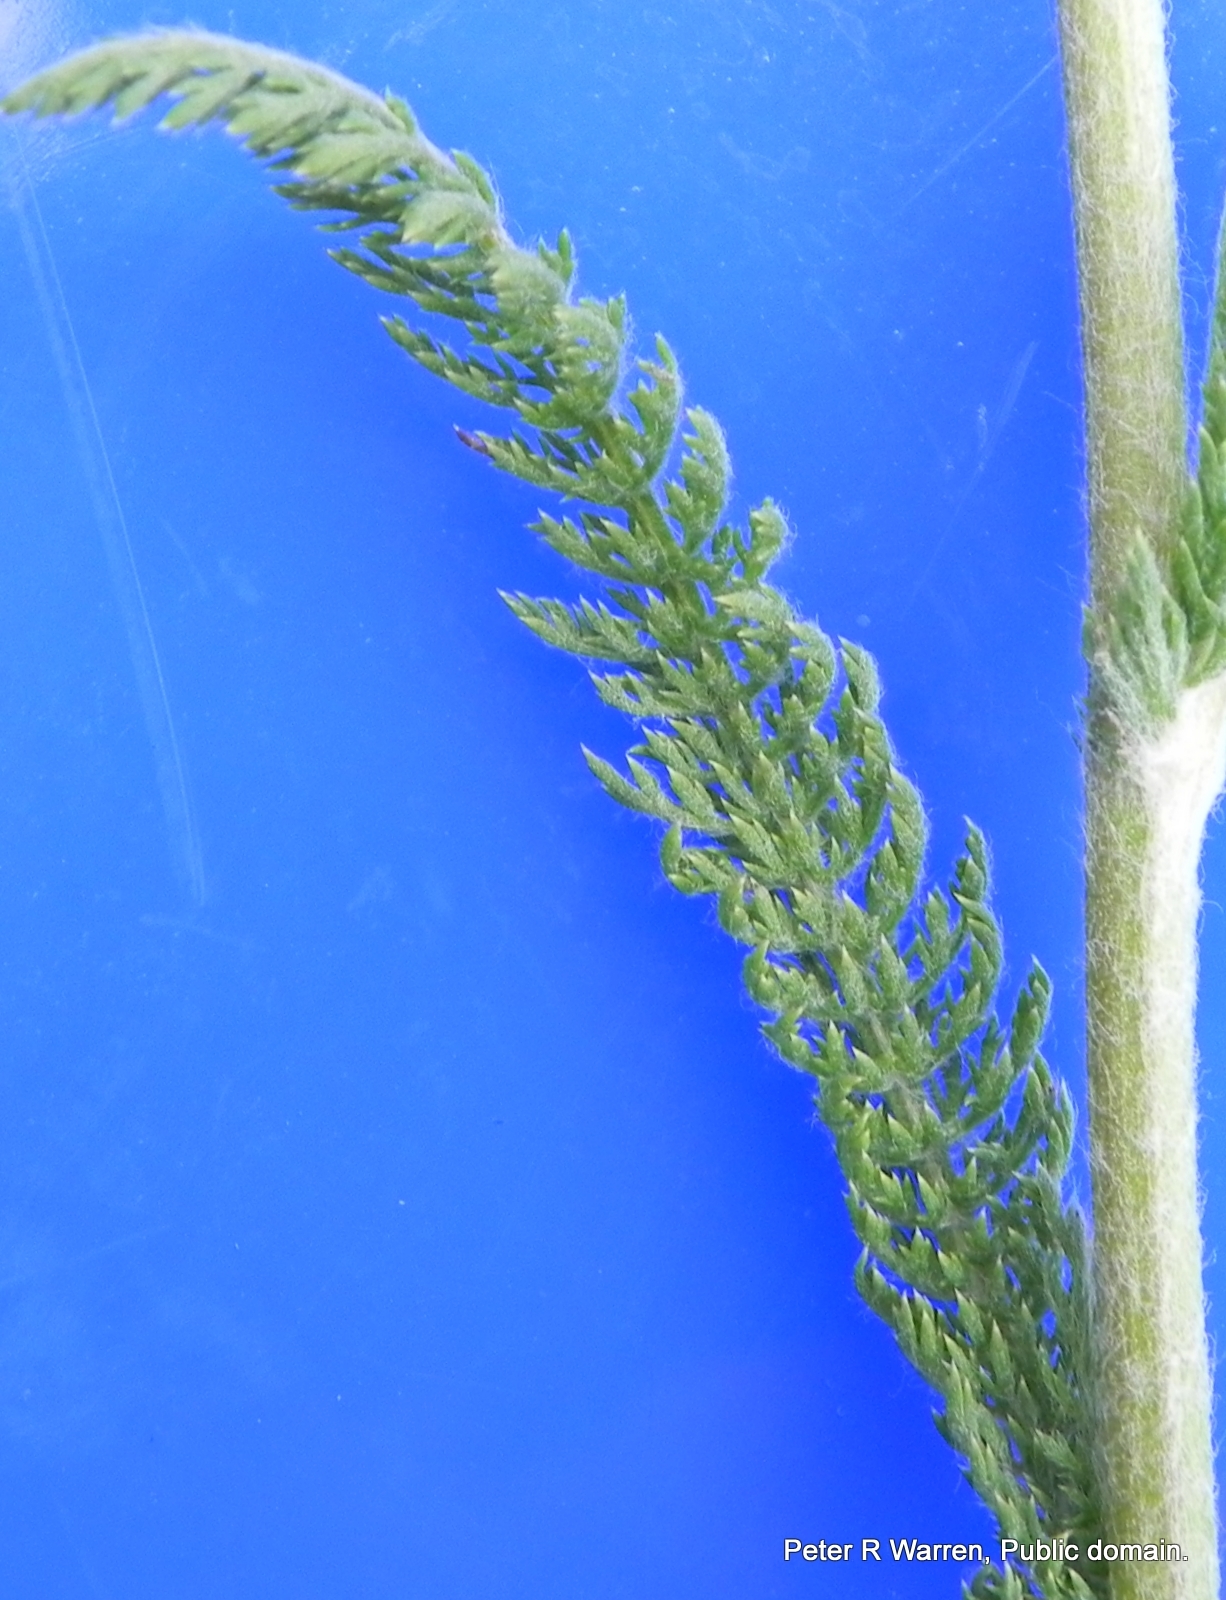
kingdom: Plantae
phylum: Tracheophyta
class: Magnoliopsida
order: Asterales
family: Asteraceae
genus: Achillea
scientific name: Achillea millefolium
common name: Yarrow
